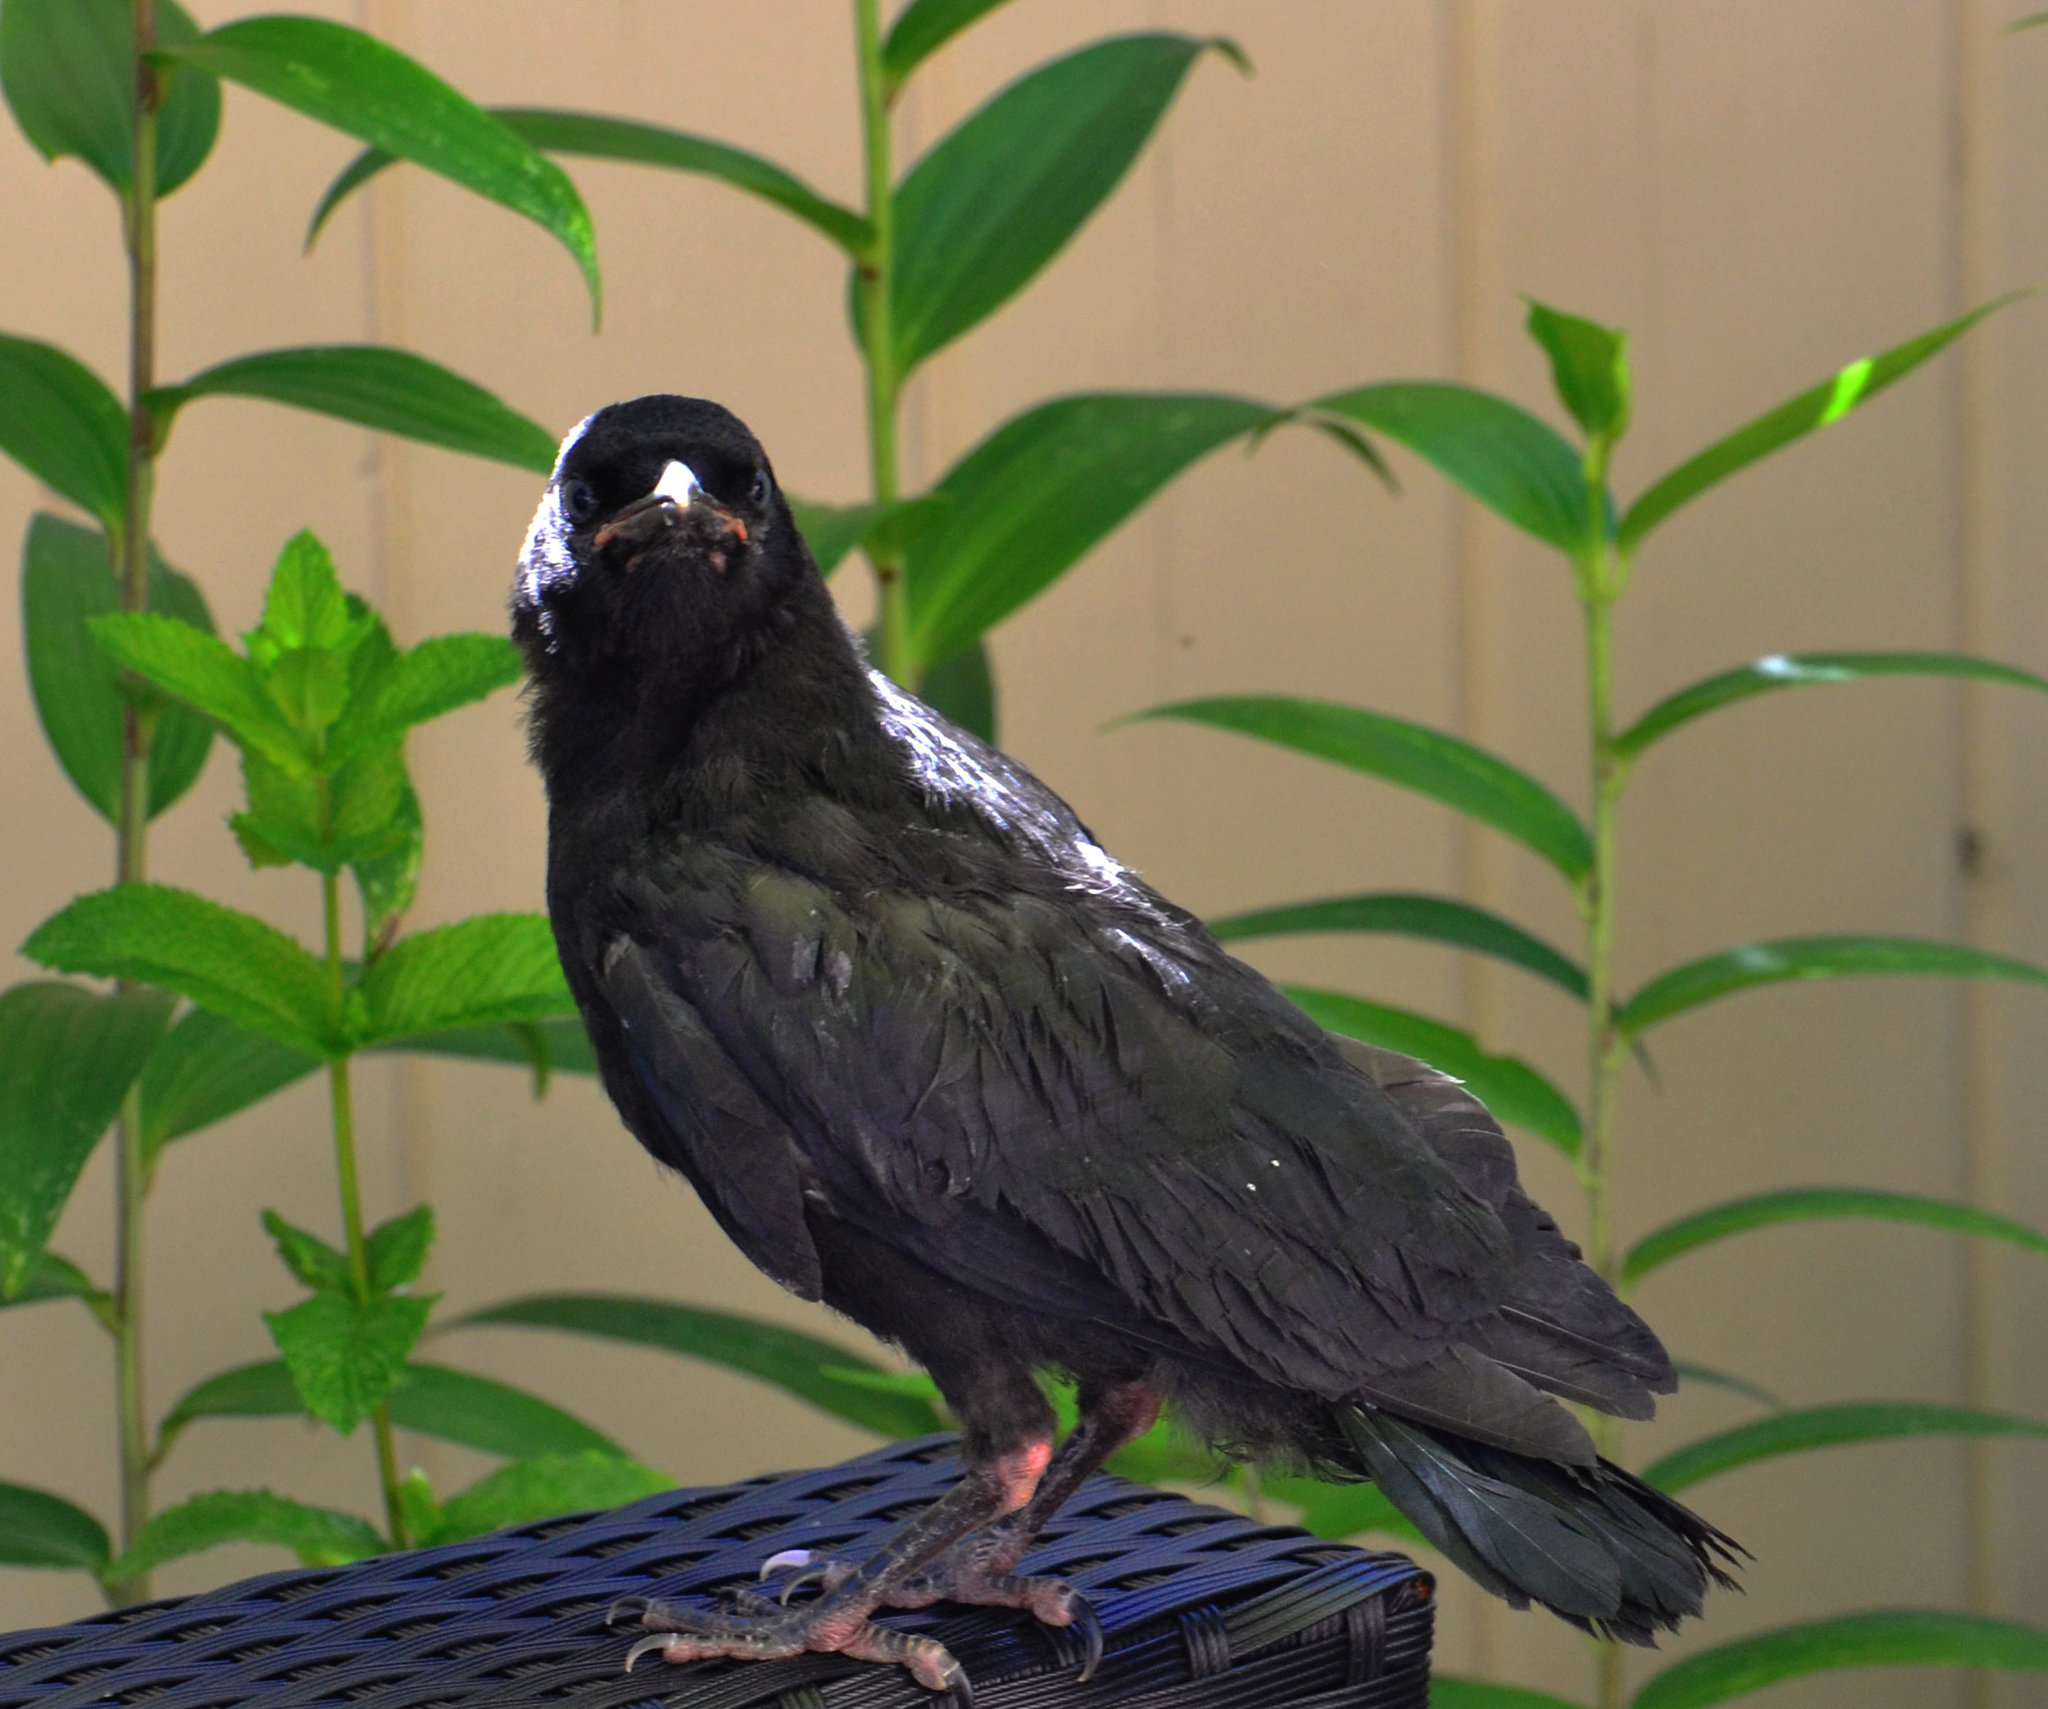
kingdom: Animalia
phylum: Chordata
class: Aves
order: Passeriformes
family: Corvidae
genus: Corvus
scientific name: Corvus brachyrhynchos
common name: American crow
